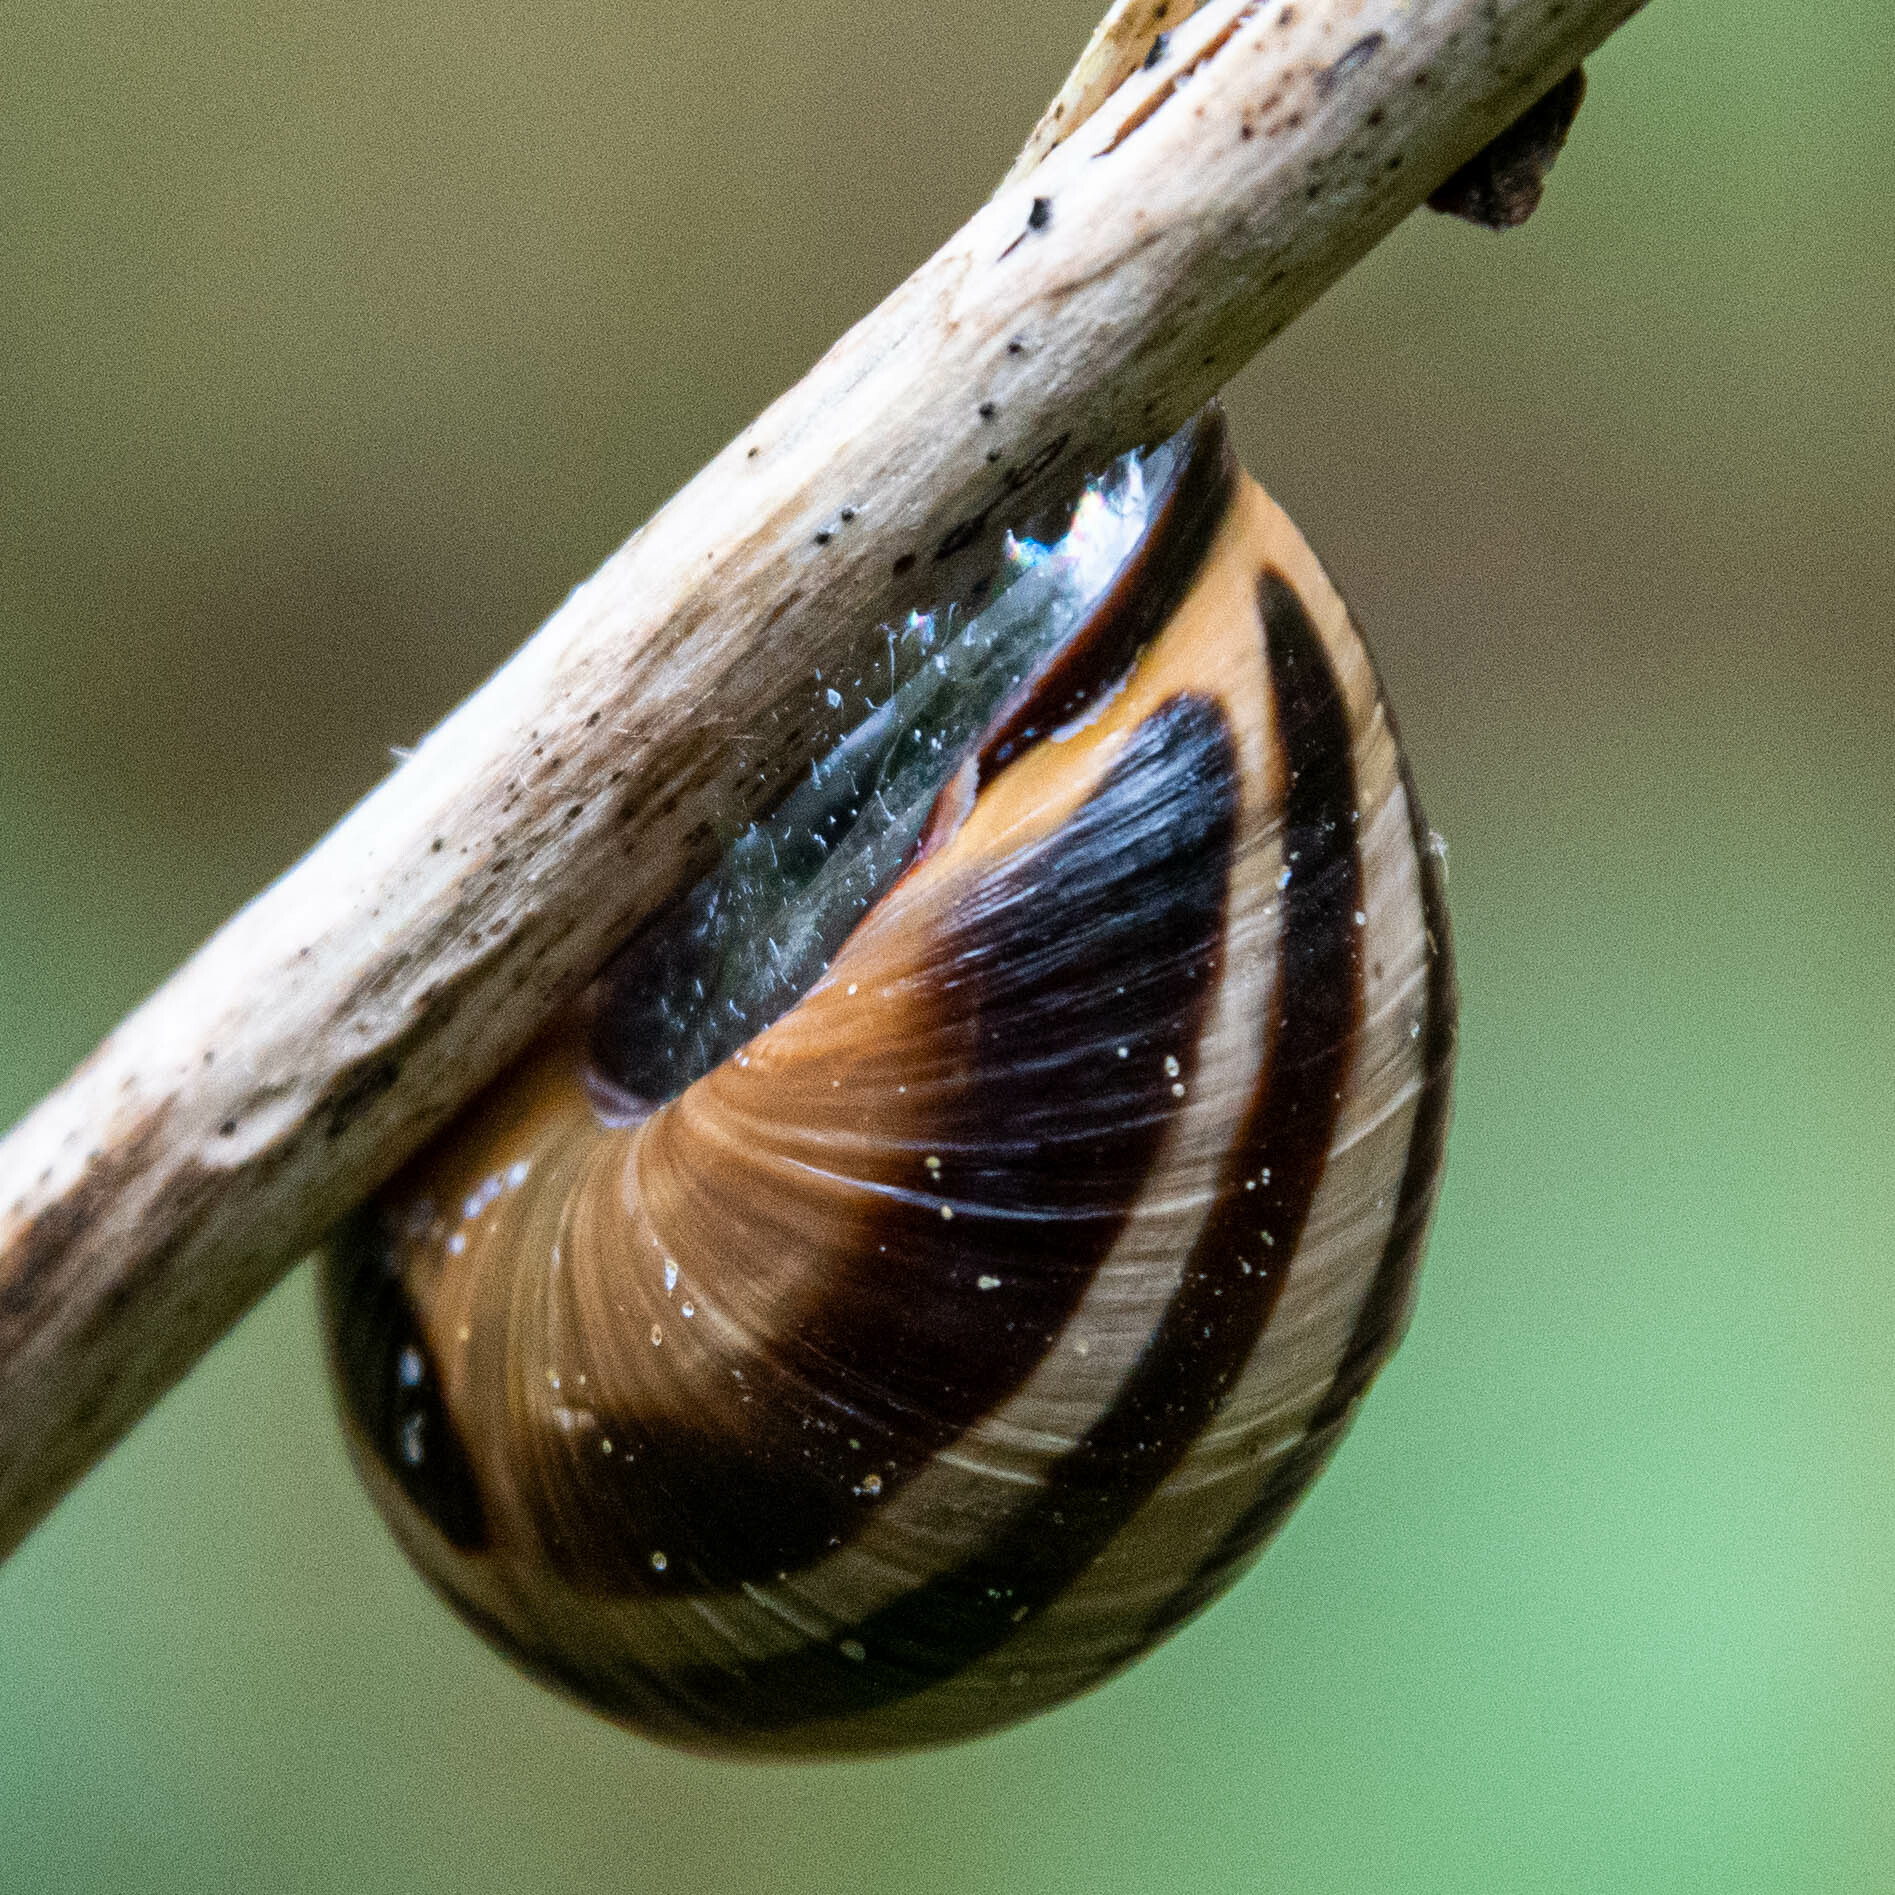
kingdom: Animalia
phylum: Mollusca
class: Gastropoda
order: Stylommatophora
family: Helicidae
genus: Cepaea
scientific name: Cepaea nemoralis
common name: Grovesnail
